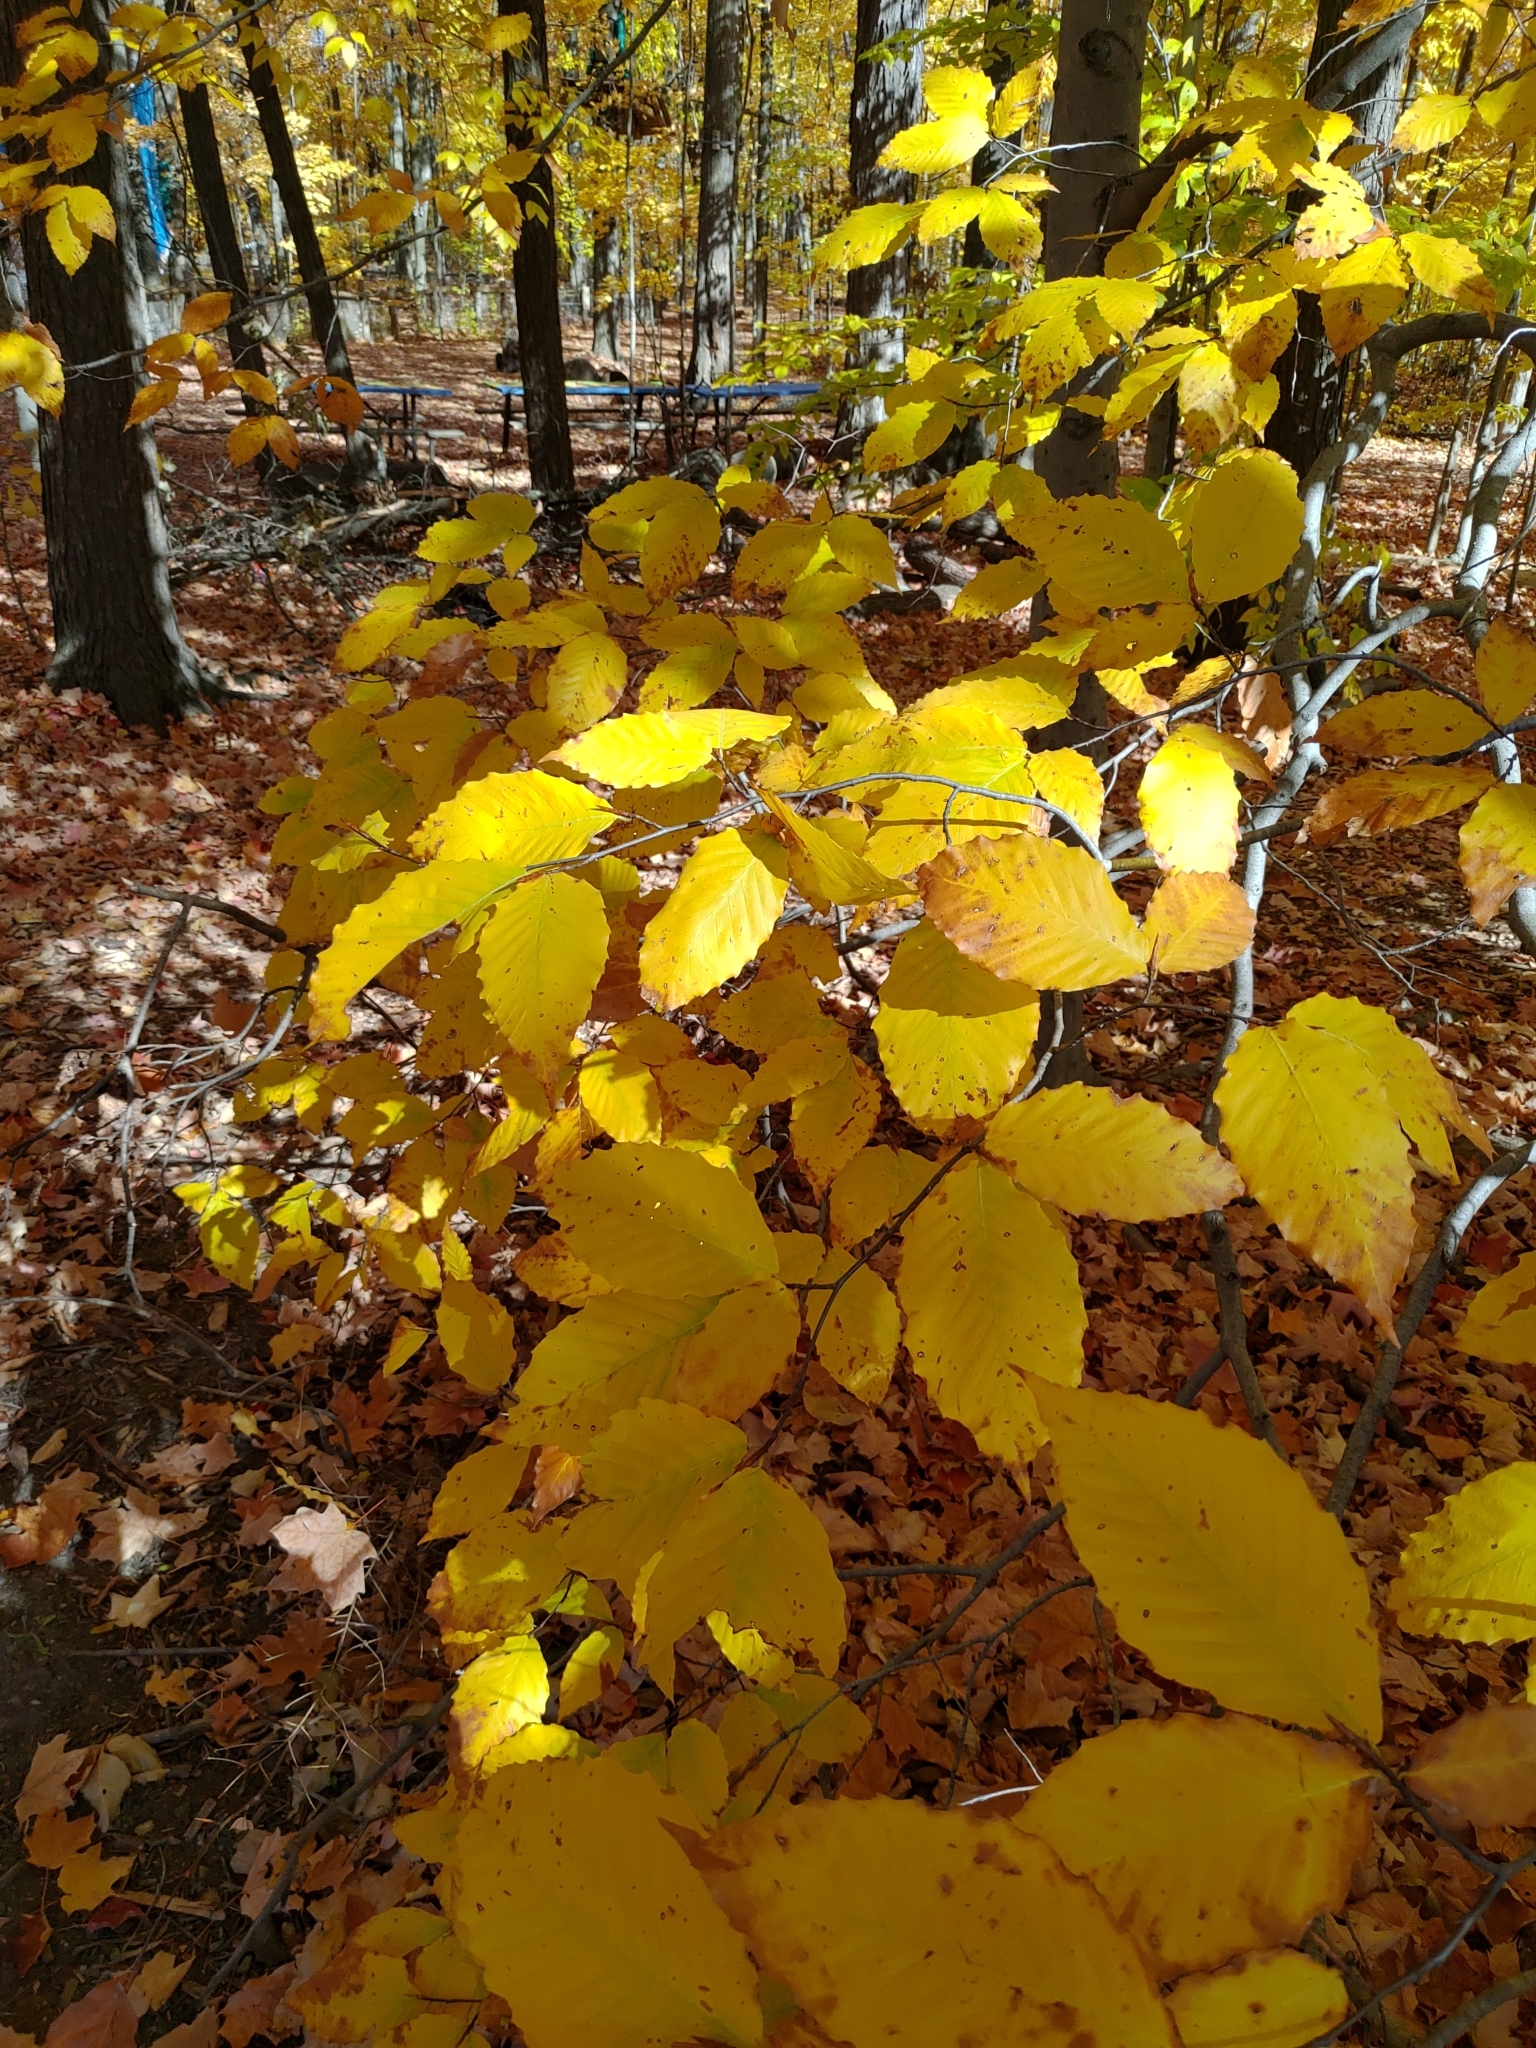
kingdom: Plantae
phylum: Tracheophyta
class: Magnoliopsida
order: Fagales
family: Fagaceae
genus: Fagus
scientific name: Fagus grandifolia
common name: American beech
